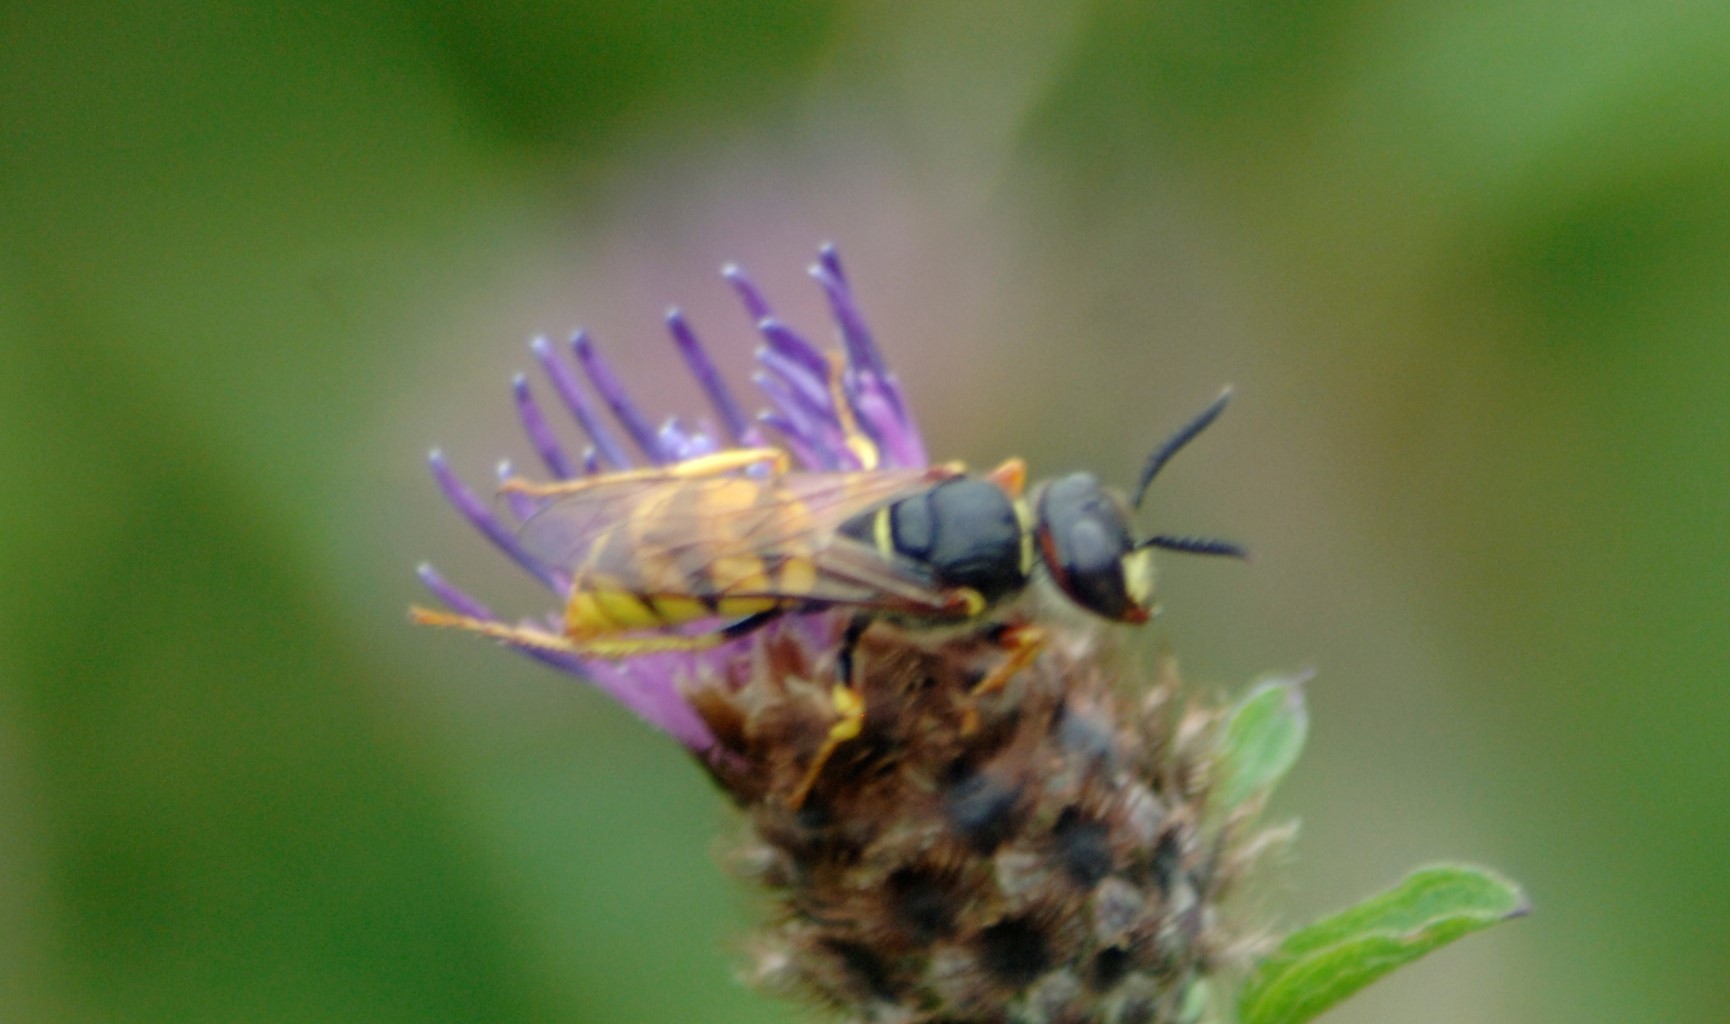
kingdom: Animalia
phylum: Arthropoda
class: Insecta
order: Hymenoptera
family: Crabronidae
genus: Philanthus
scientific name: Philanthus triangulum
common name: Bee wolf
